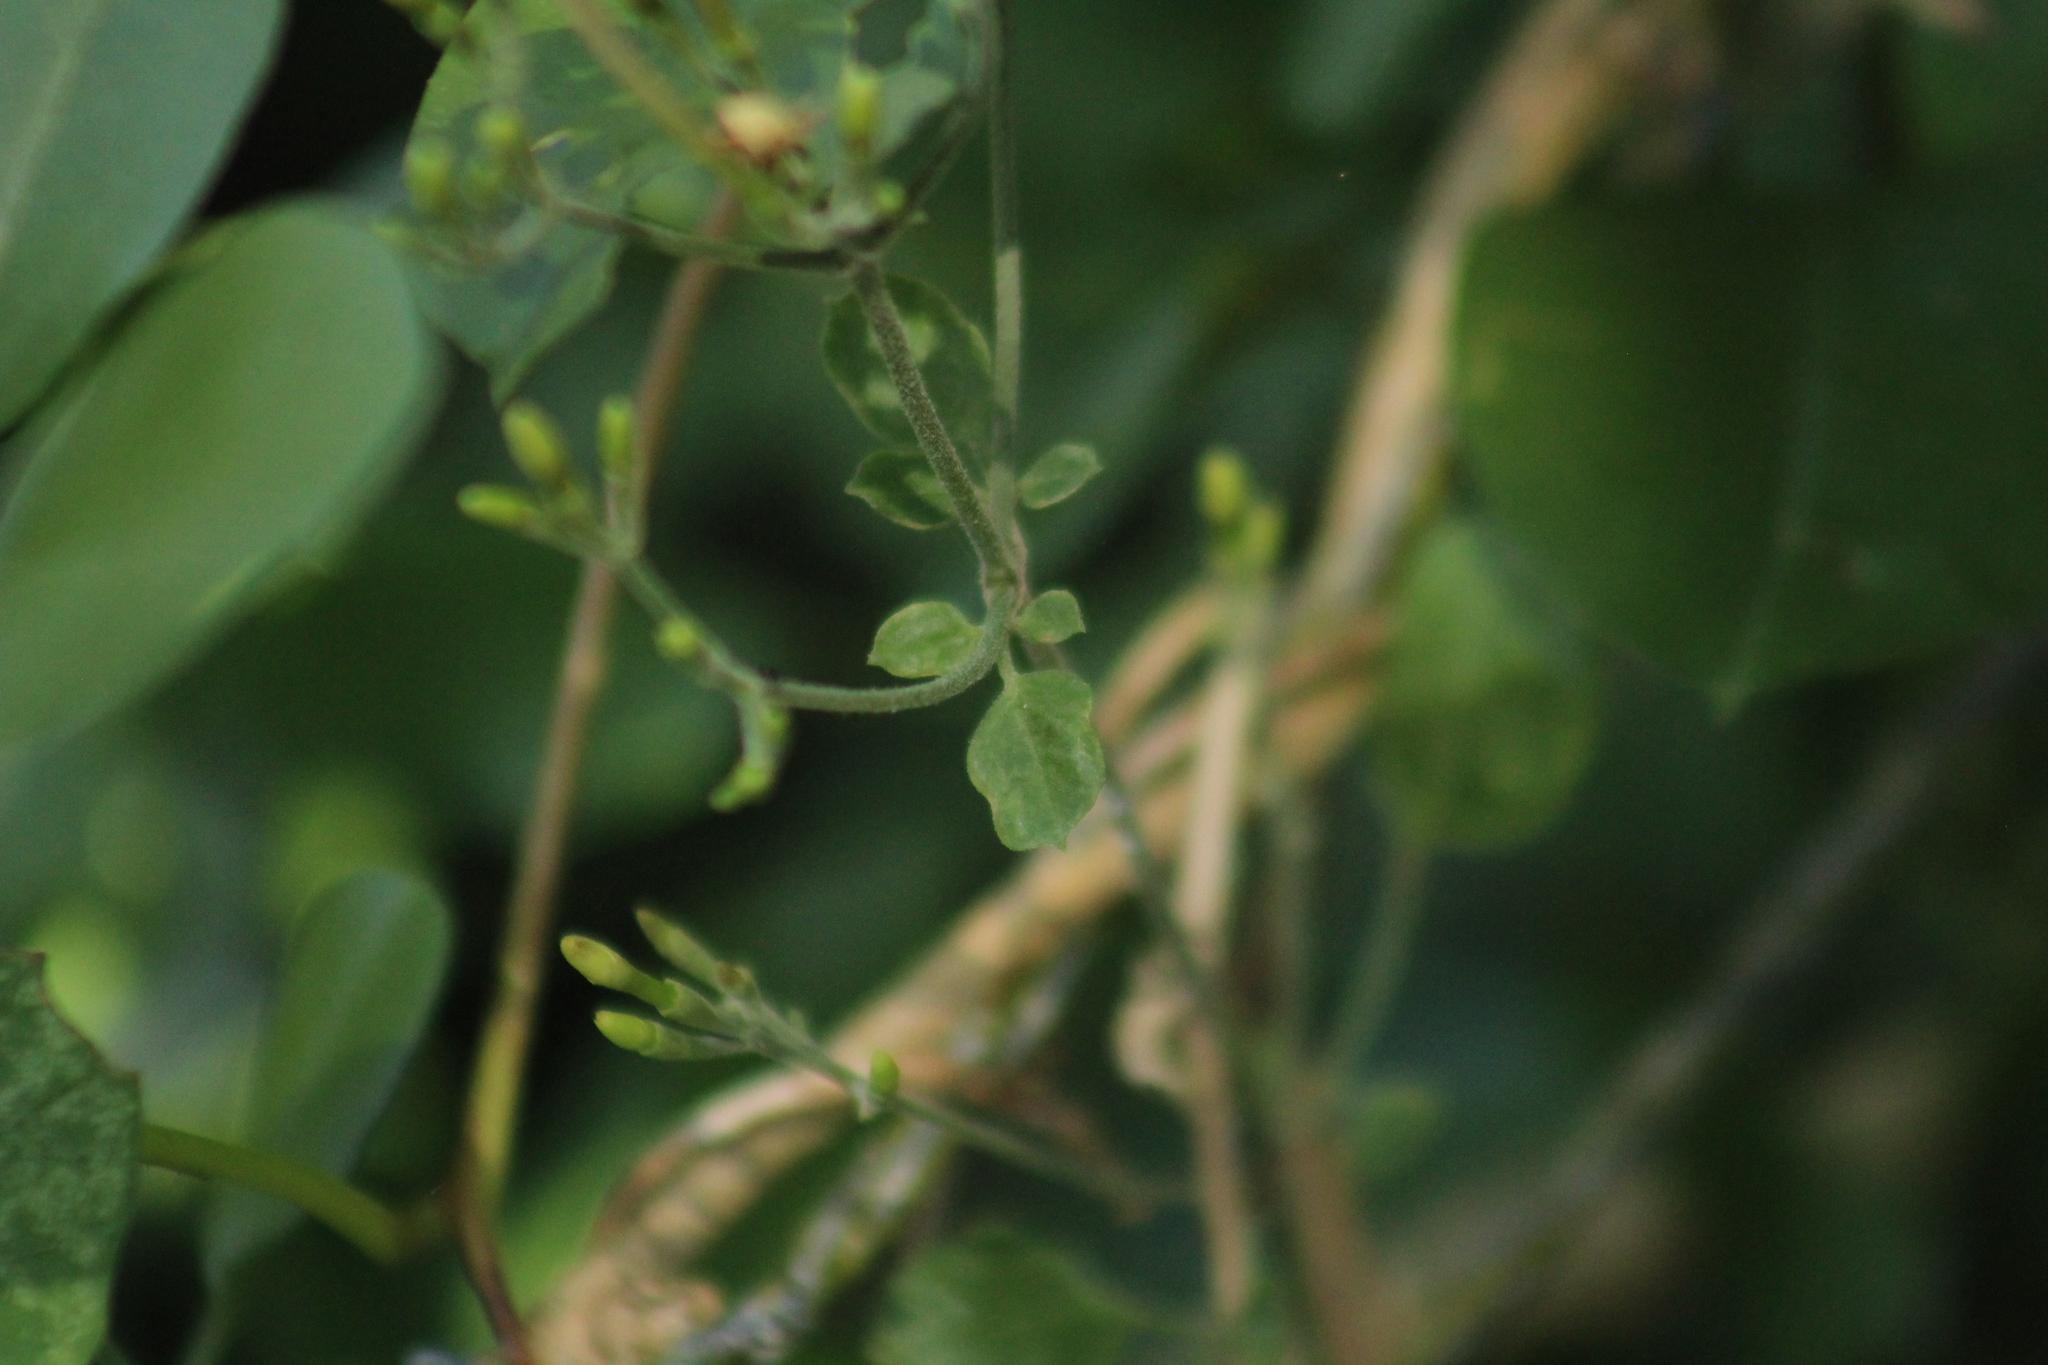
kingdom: Plantae
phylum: Tracheophyta
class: Magnoliopsida
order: Lamiales
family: Oleaceae
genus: Jasminum
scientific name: Jasminum fluminense
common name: Brazilian jasmine
